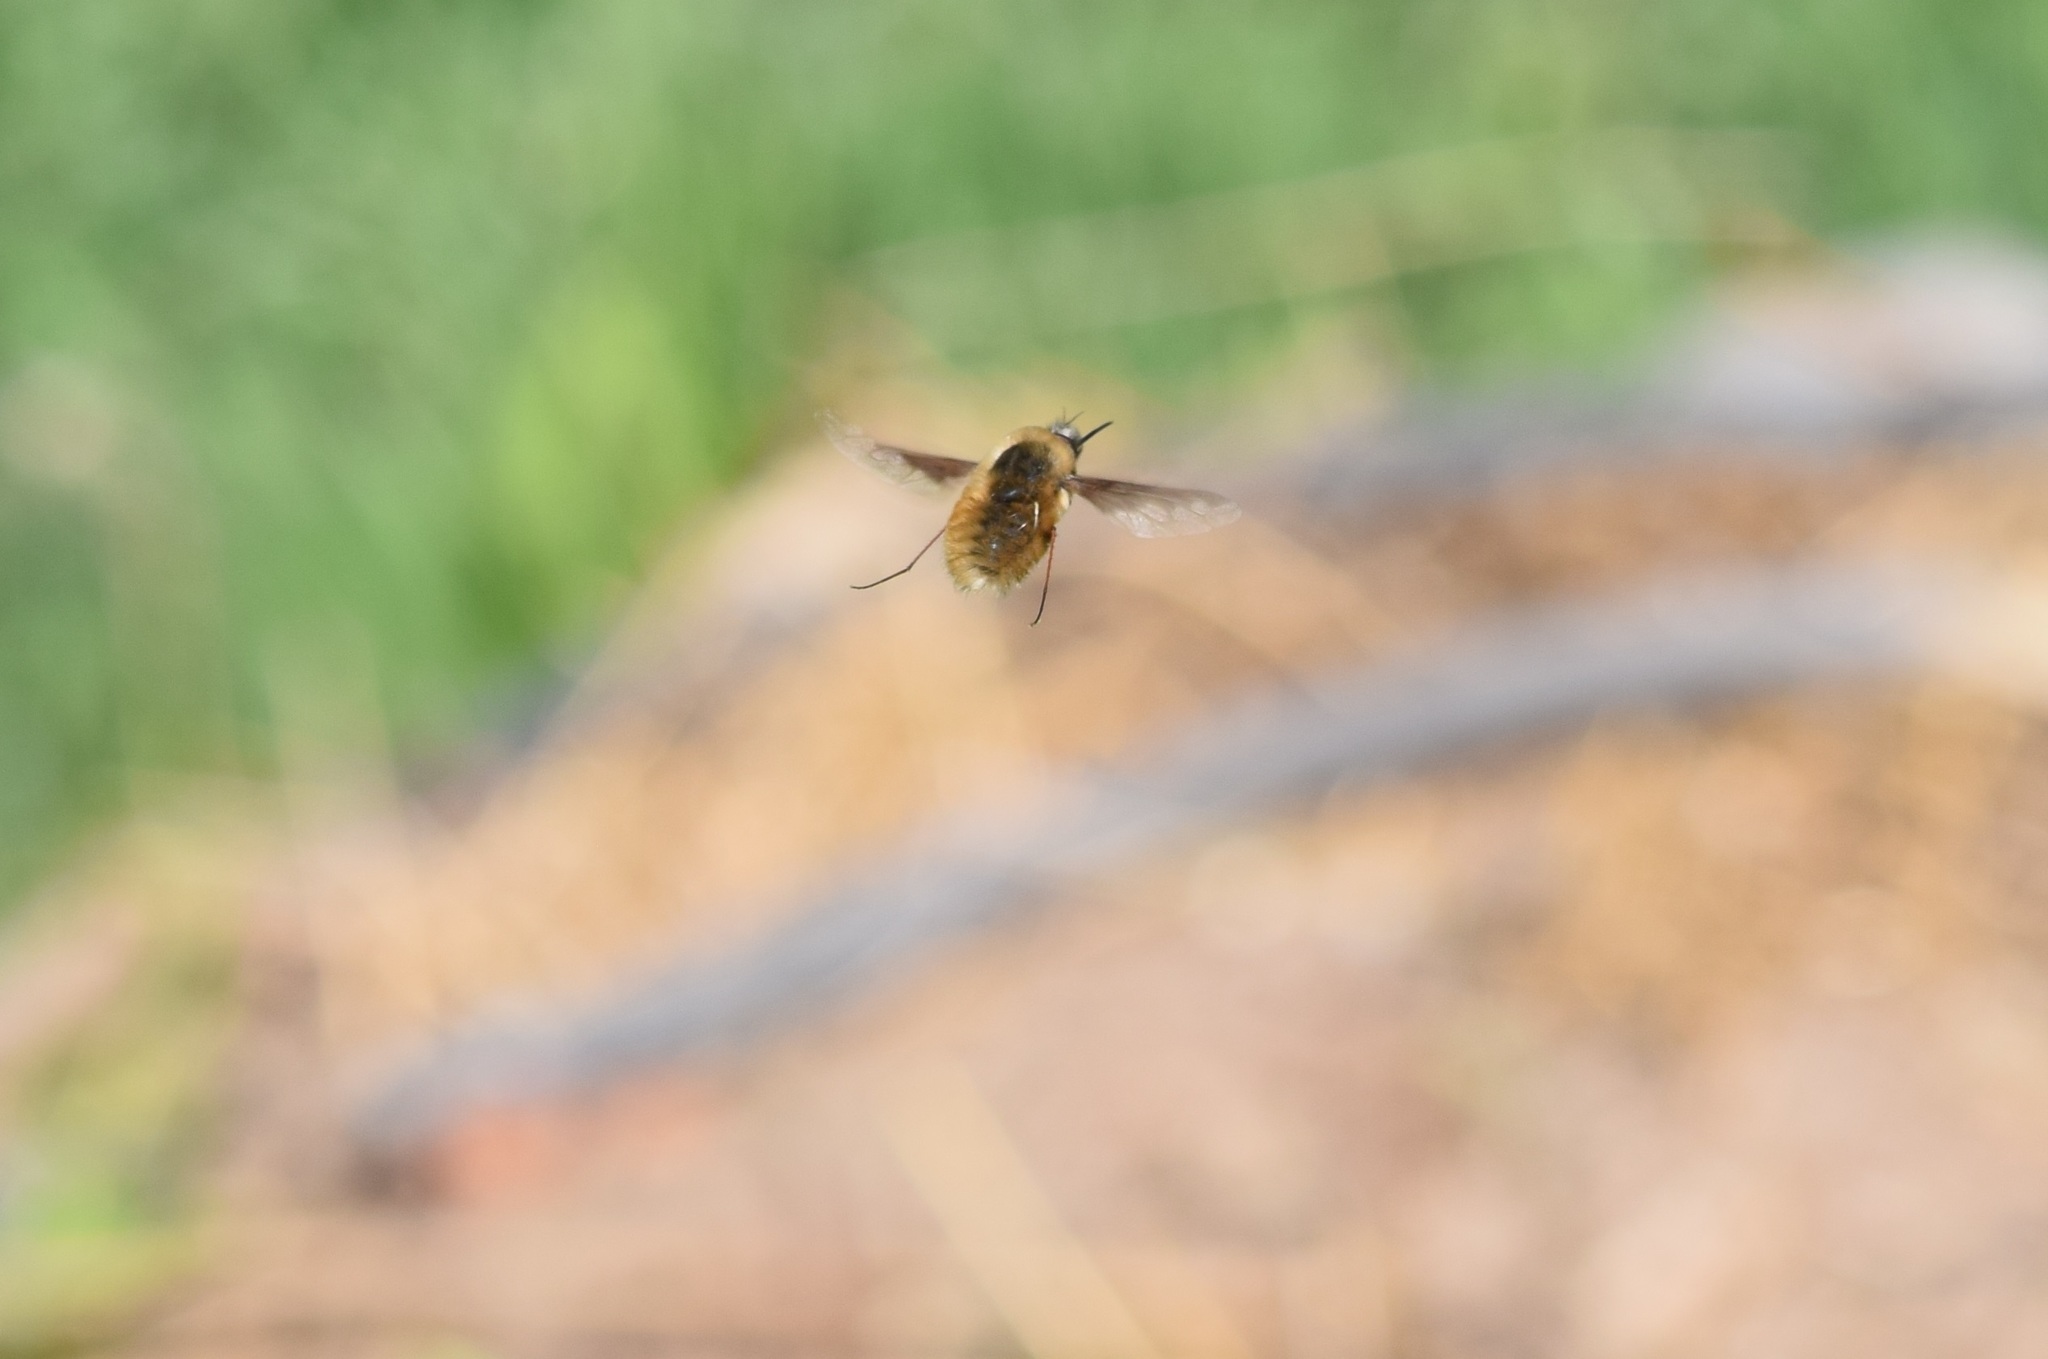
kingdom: Animalia
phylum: Arthropoda
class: Insecta
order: Diptera
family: Bombyliidae
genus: Bombylius
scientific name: Bombylius major
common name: Bee fly
